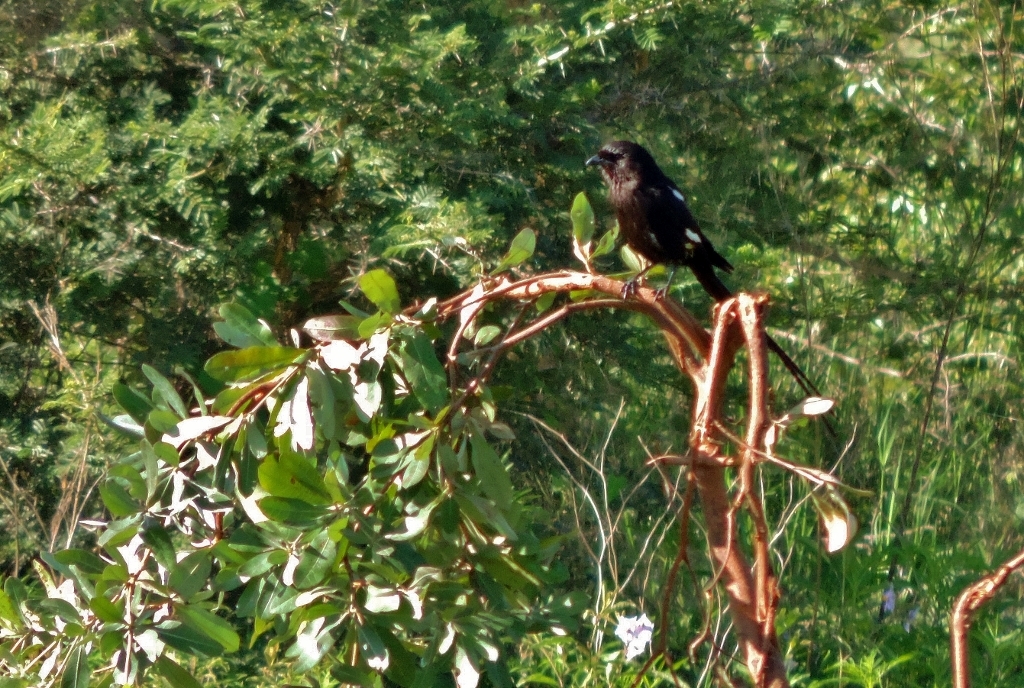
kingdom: Animalia
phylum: Chordata
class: Aves
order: Passeriformes
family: Laniidae
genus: Urolestes
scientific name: Urolestes melanoleucus
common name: Magpie shrike
